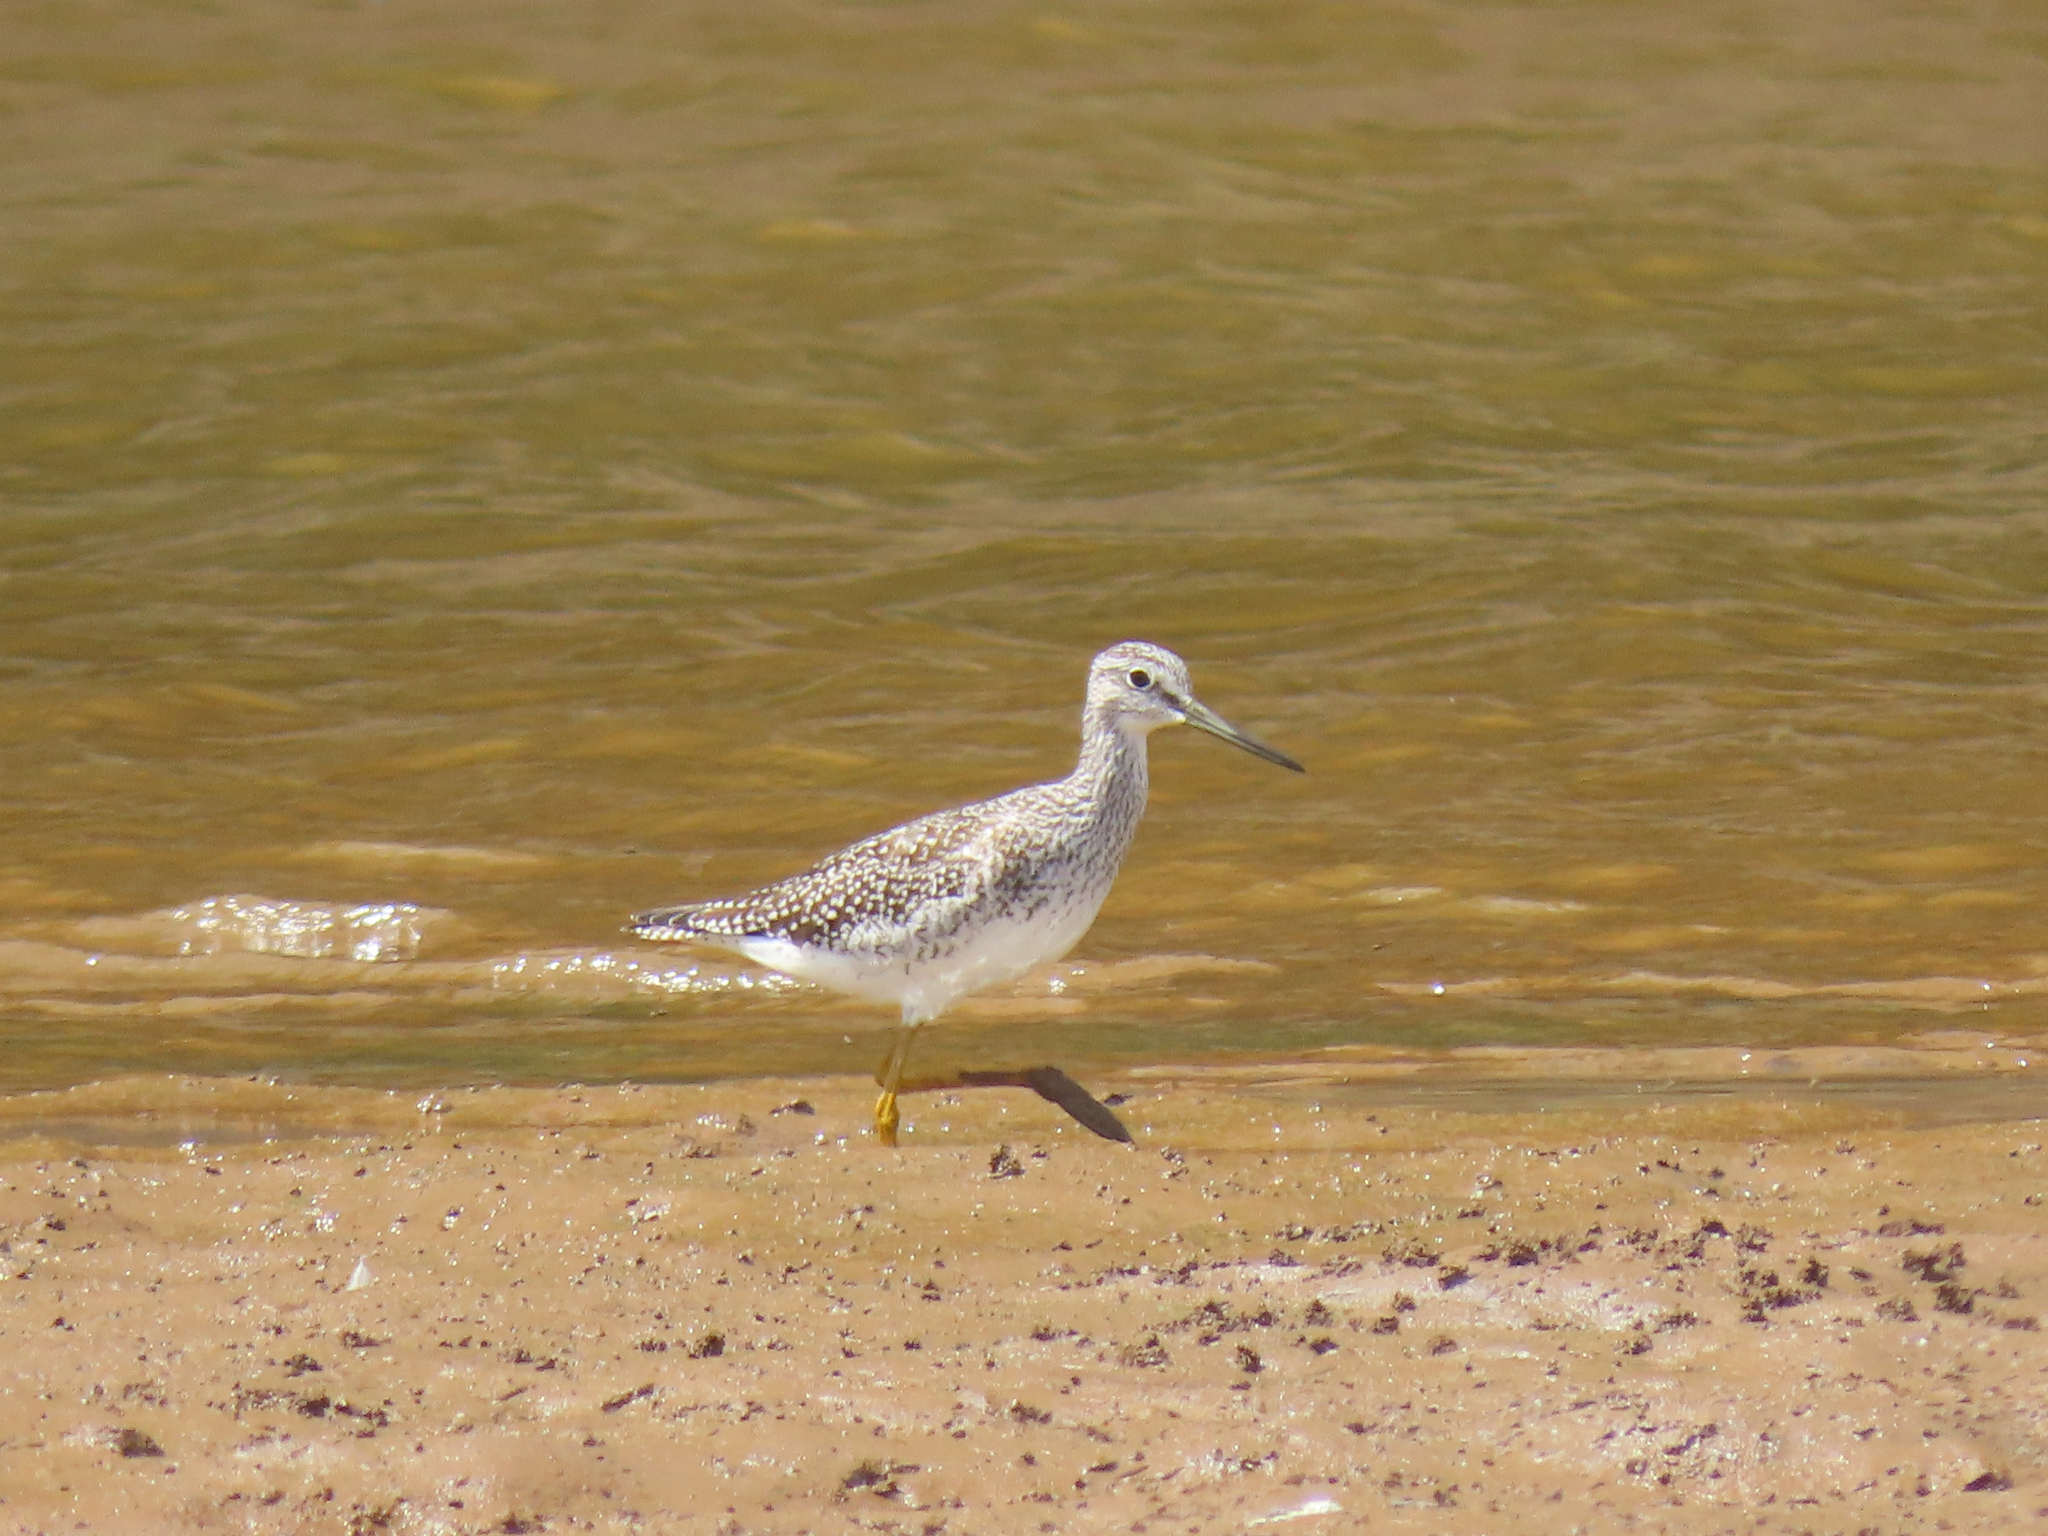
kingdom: Animalia
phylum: Chordata
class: Aves
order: Charadriiformes
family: Scolopacidae
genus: Tringa
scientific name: Tringa melanoleuca
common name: Greater yellowlegs
